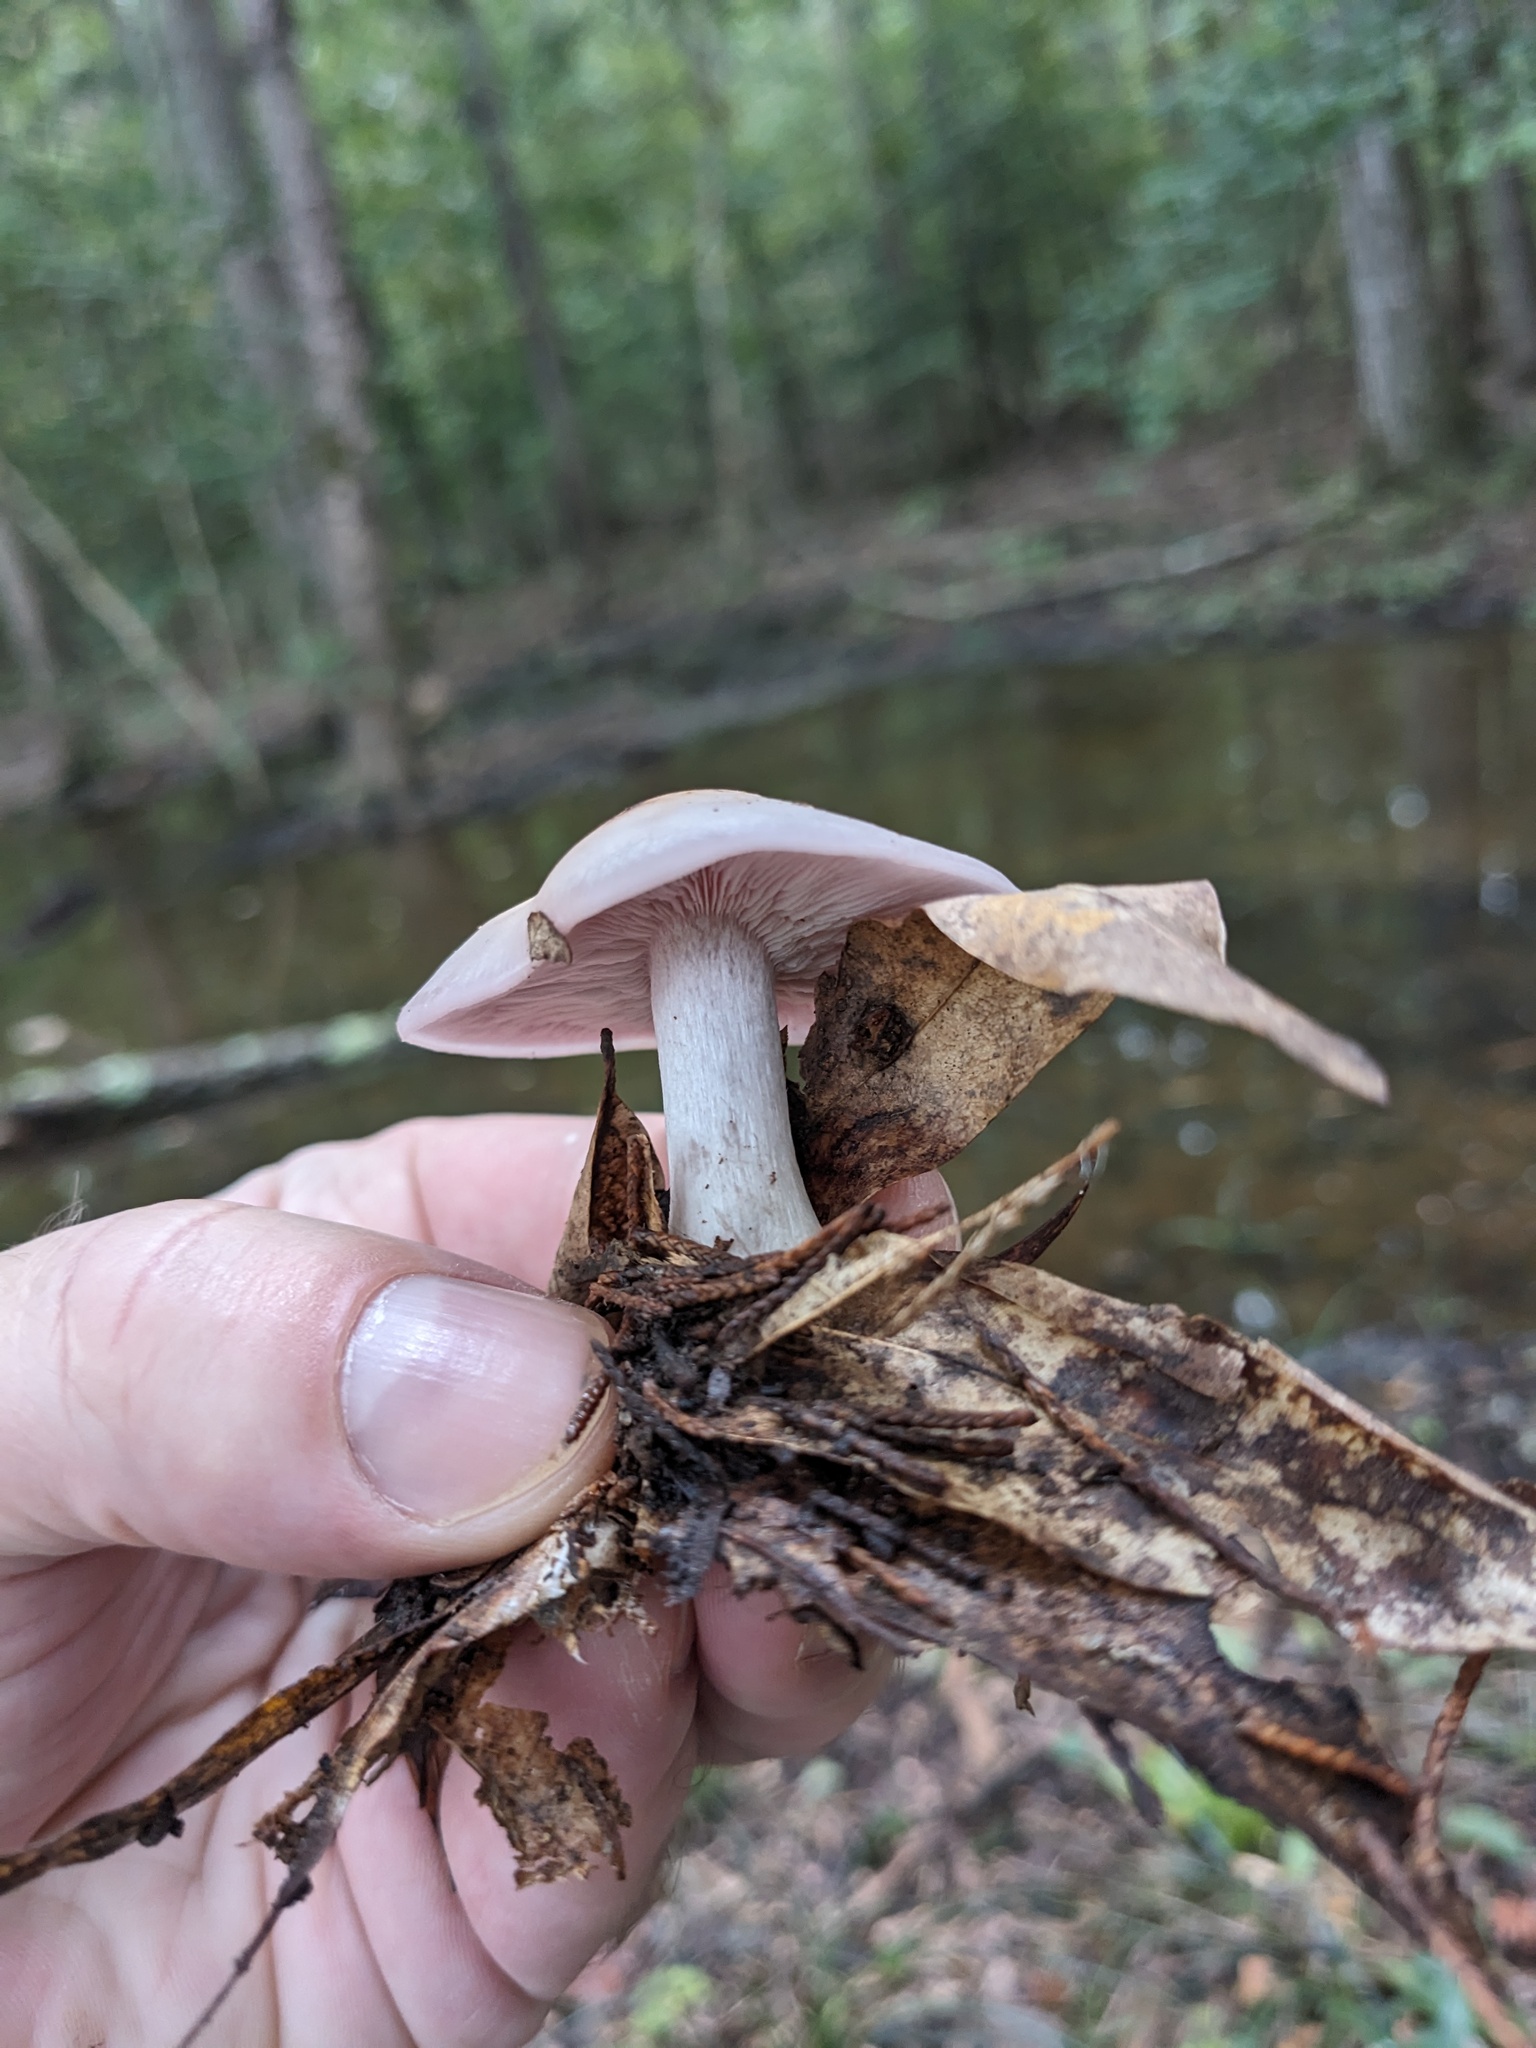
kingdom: Fungi
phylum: Basidiomycota
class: Agaricomycetes
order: Agaricales
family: Tricholomataceae
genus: Collybia
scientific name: Collybia
